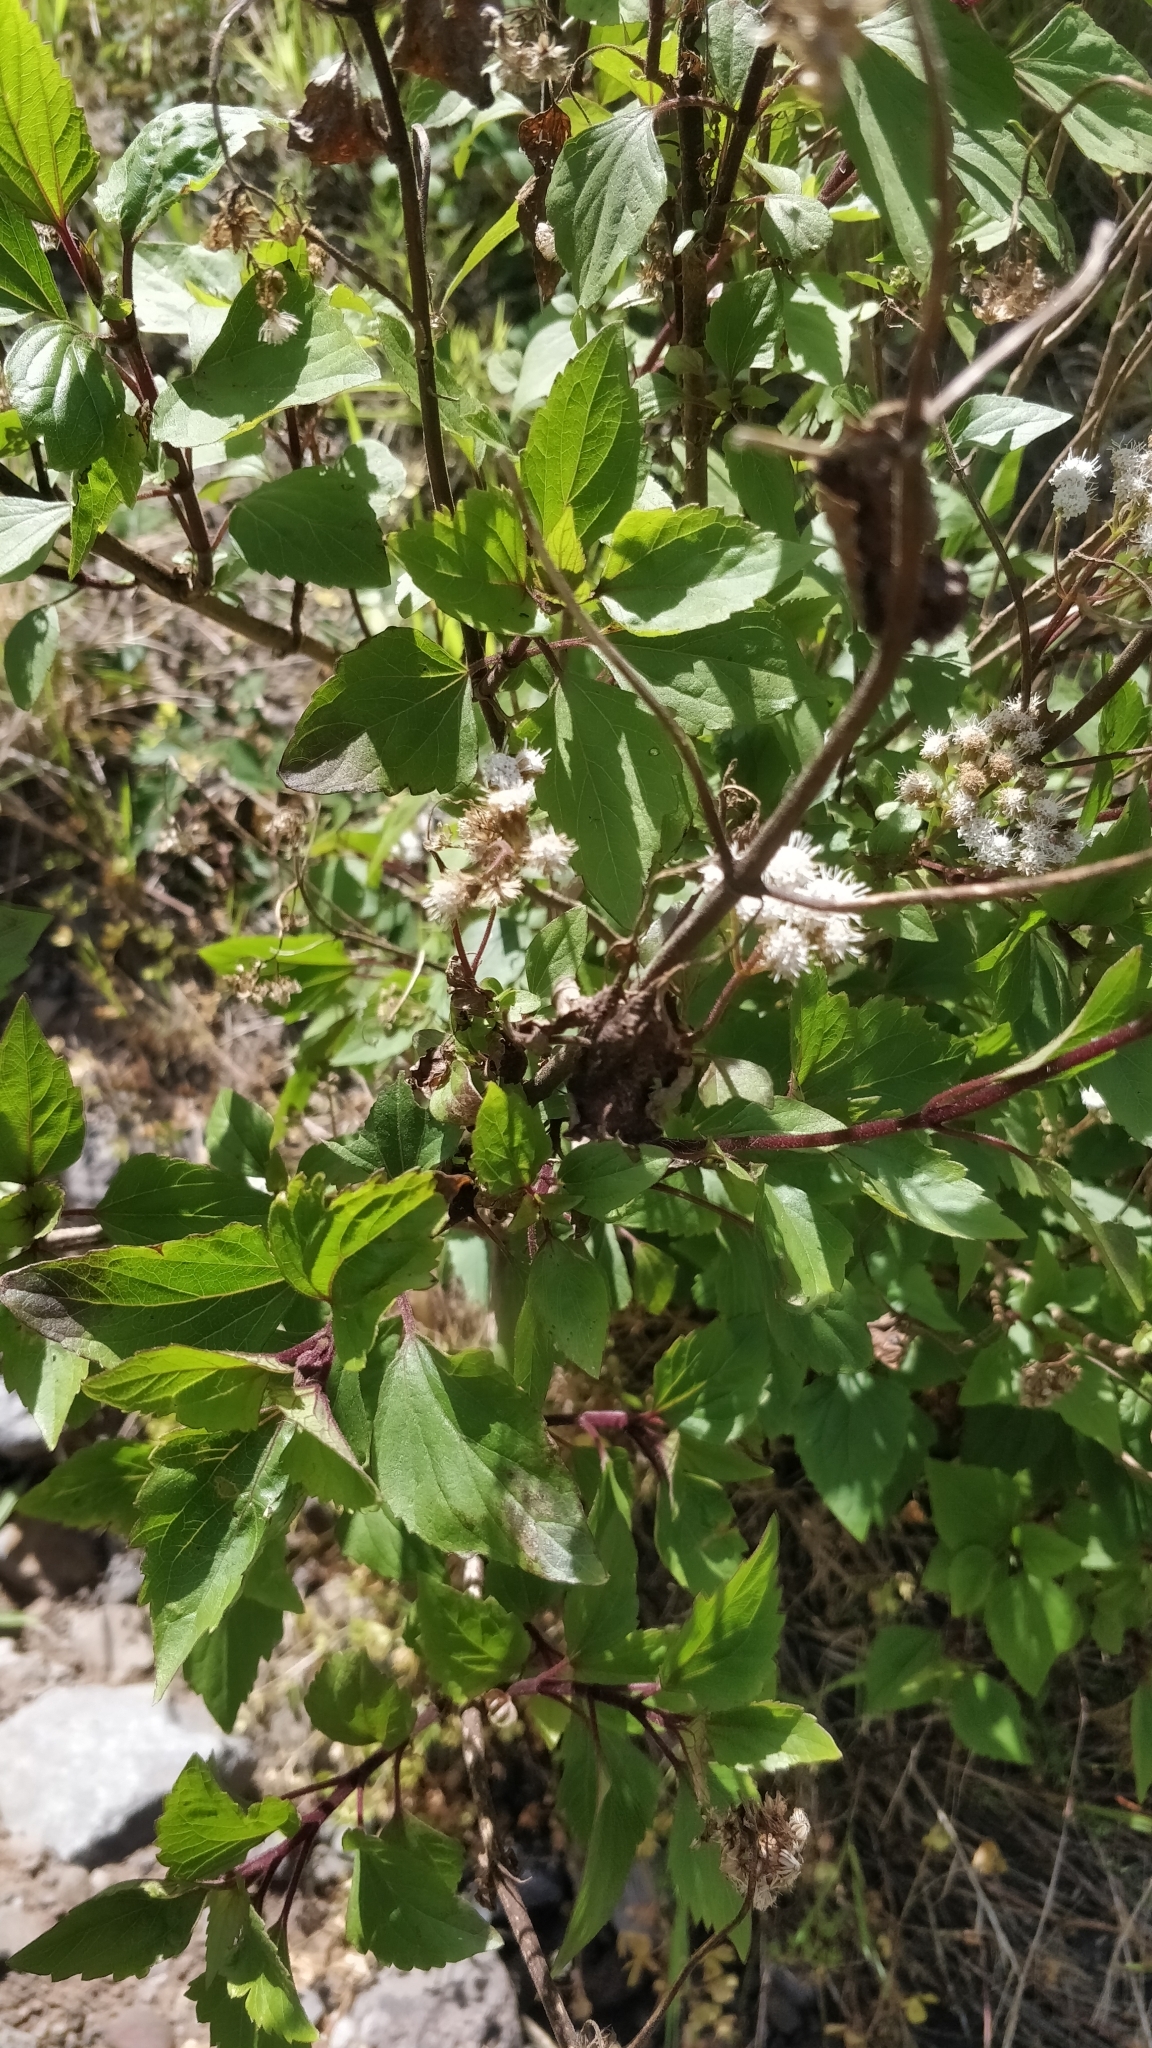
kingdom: Plantae
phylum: Tracheophyta
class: Magnoliopsida
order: Asterales
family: Asteraceae
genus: Ageratina
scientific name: Ageratina adenophora
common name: Sticky snakeroot
